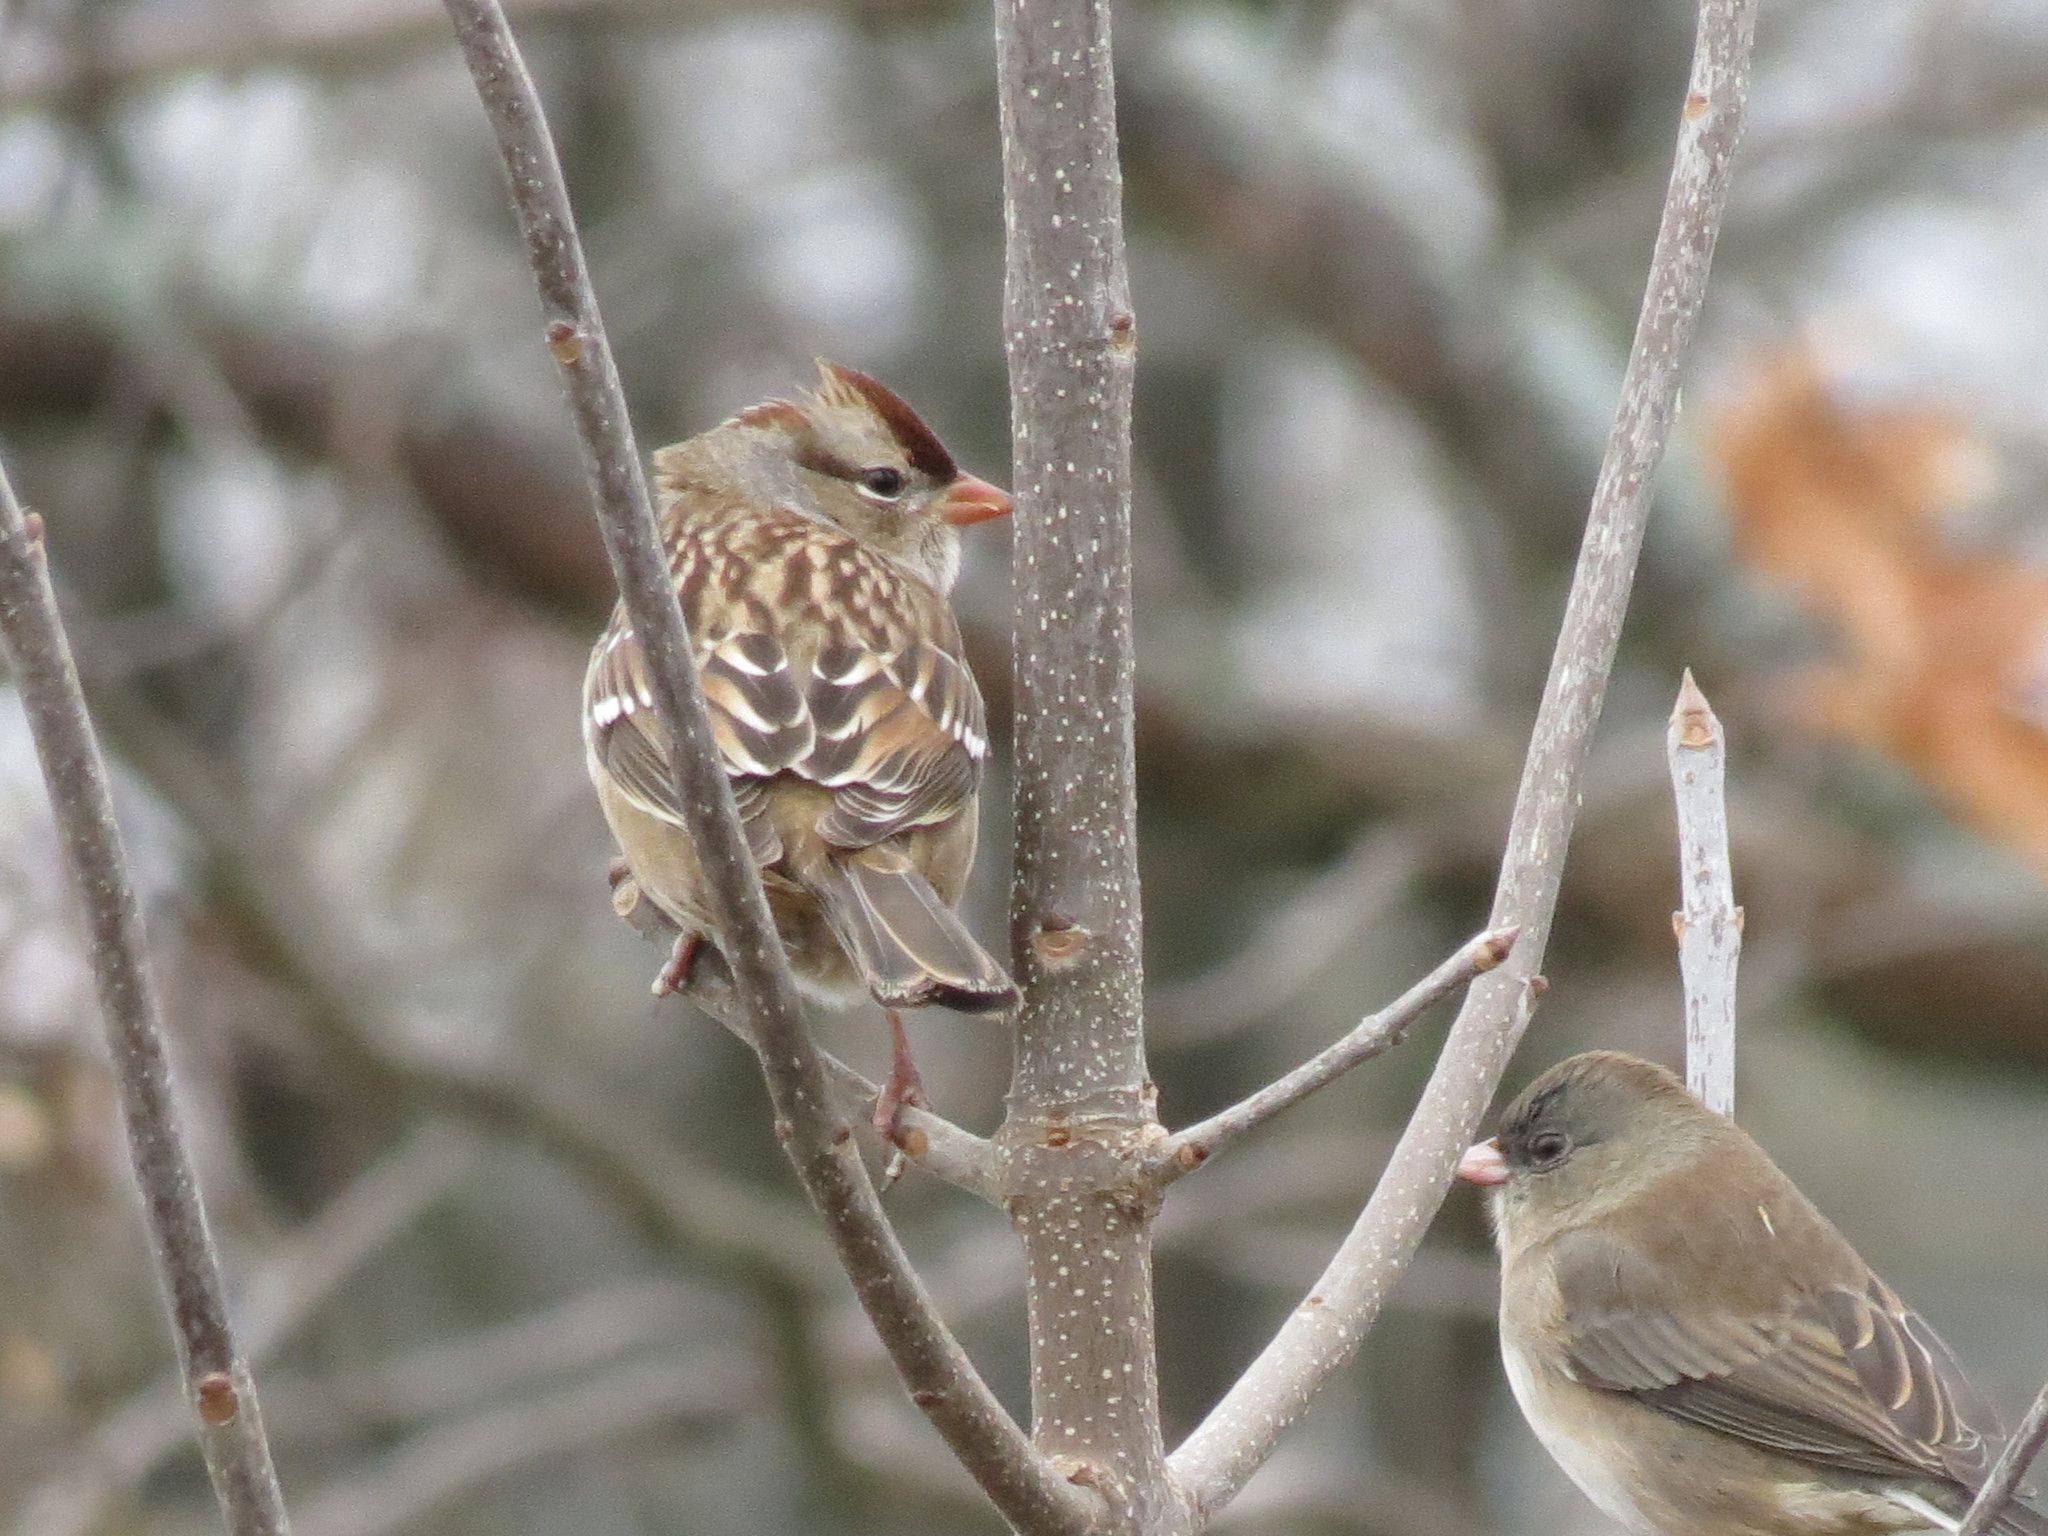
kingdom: Animalia
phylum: Chordata
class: Aves
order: Passeriformes
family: Passerellidae
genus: Zonotrichia
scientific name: Zonotrichia leucophrys
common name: White-crowned sparrow
